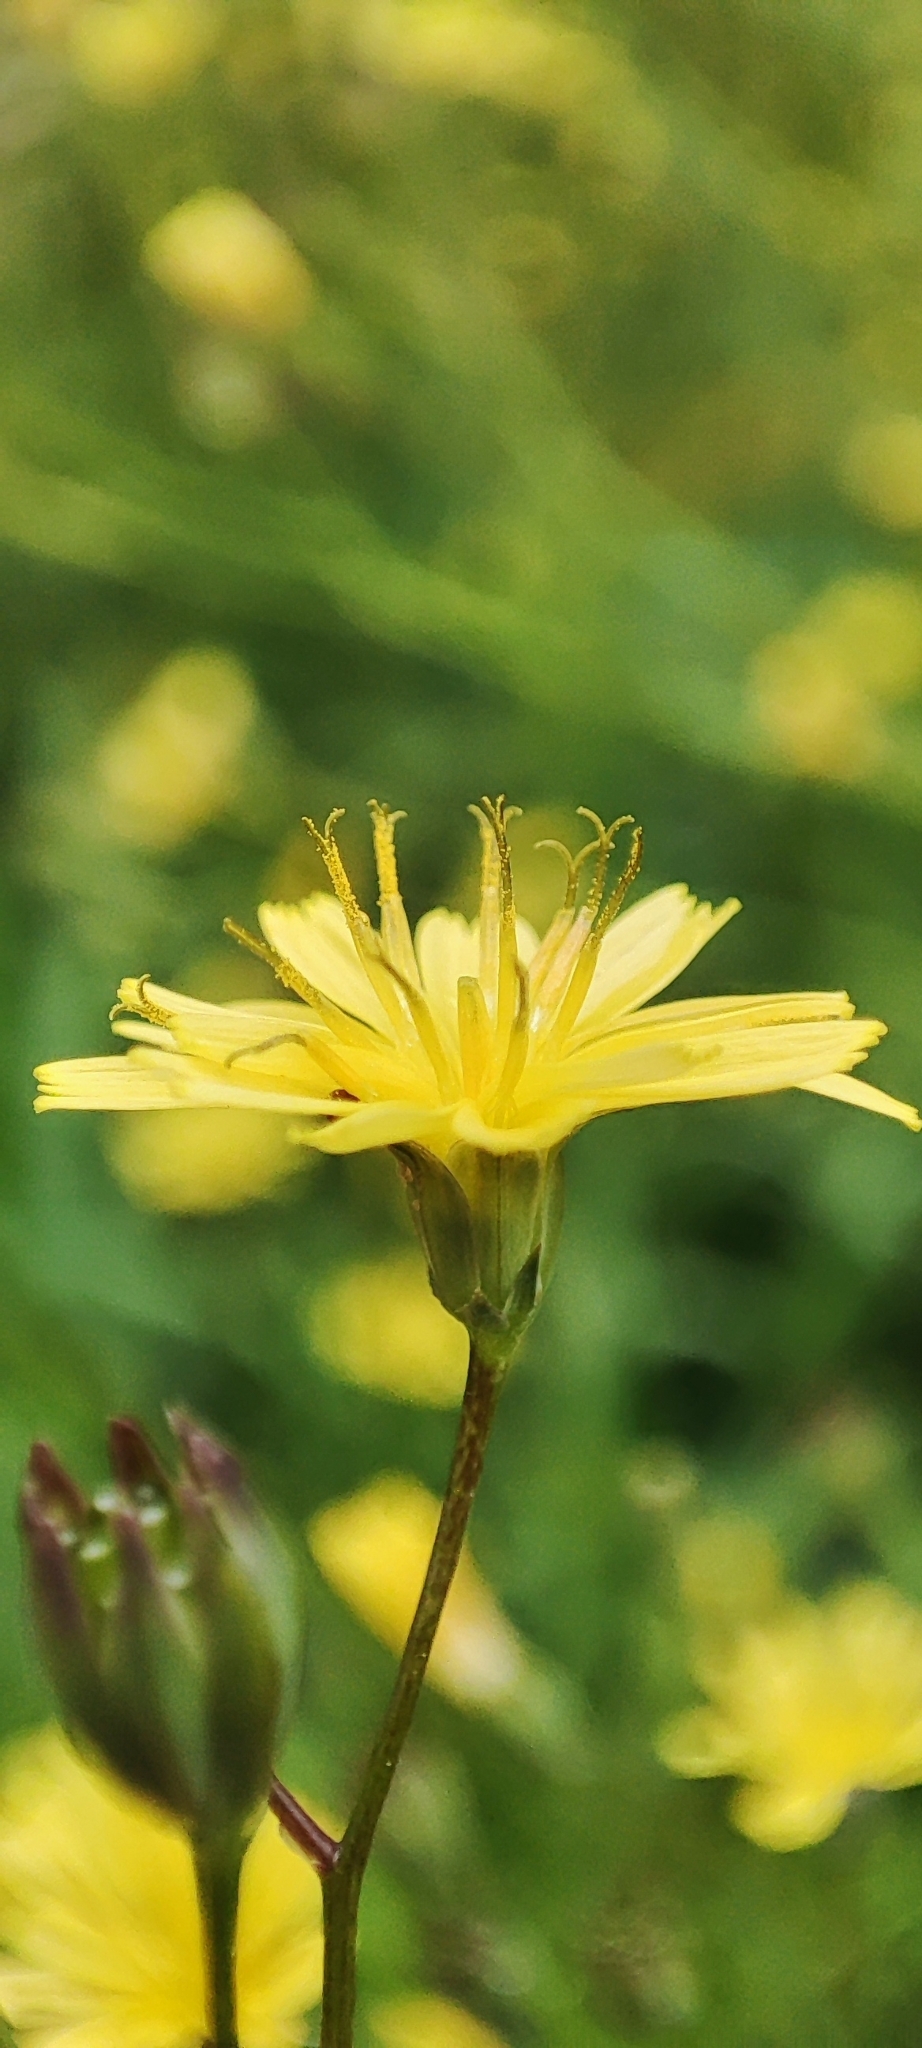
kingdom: Plantae
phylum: Tracheophyta
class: Magnoliopsida
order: Asterales
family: Asteraceae
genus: Lapsana
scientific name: Lapsana communis
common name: Nipplewort
